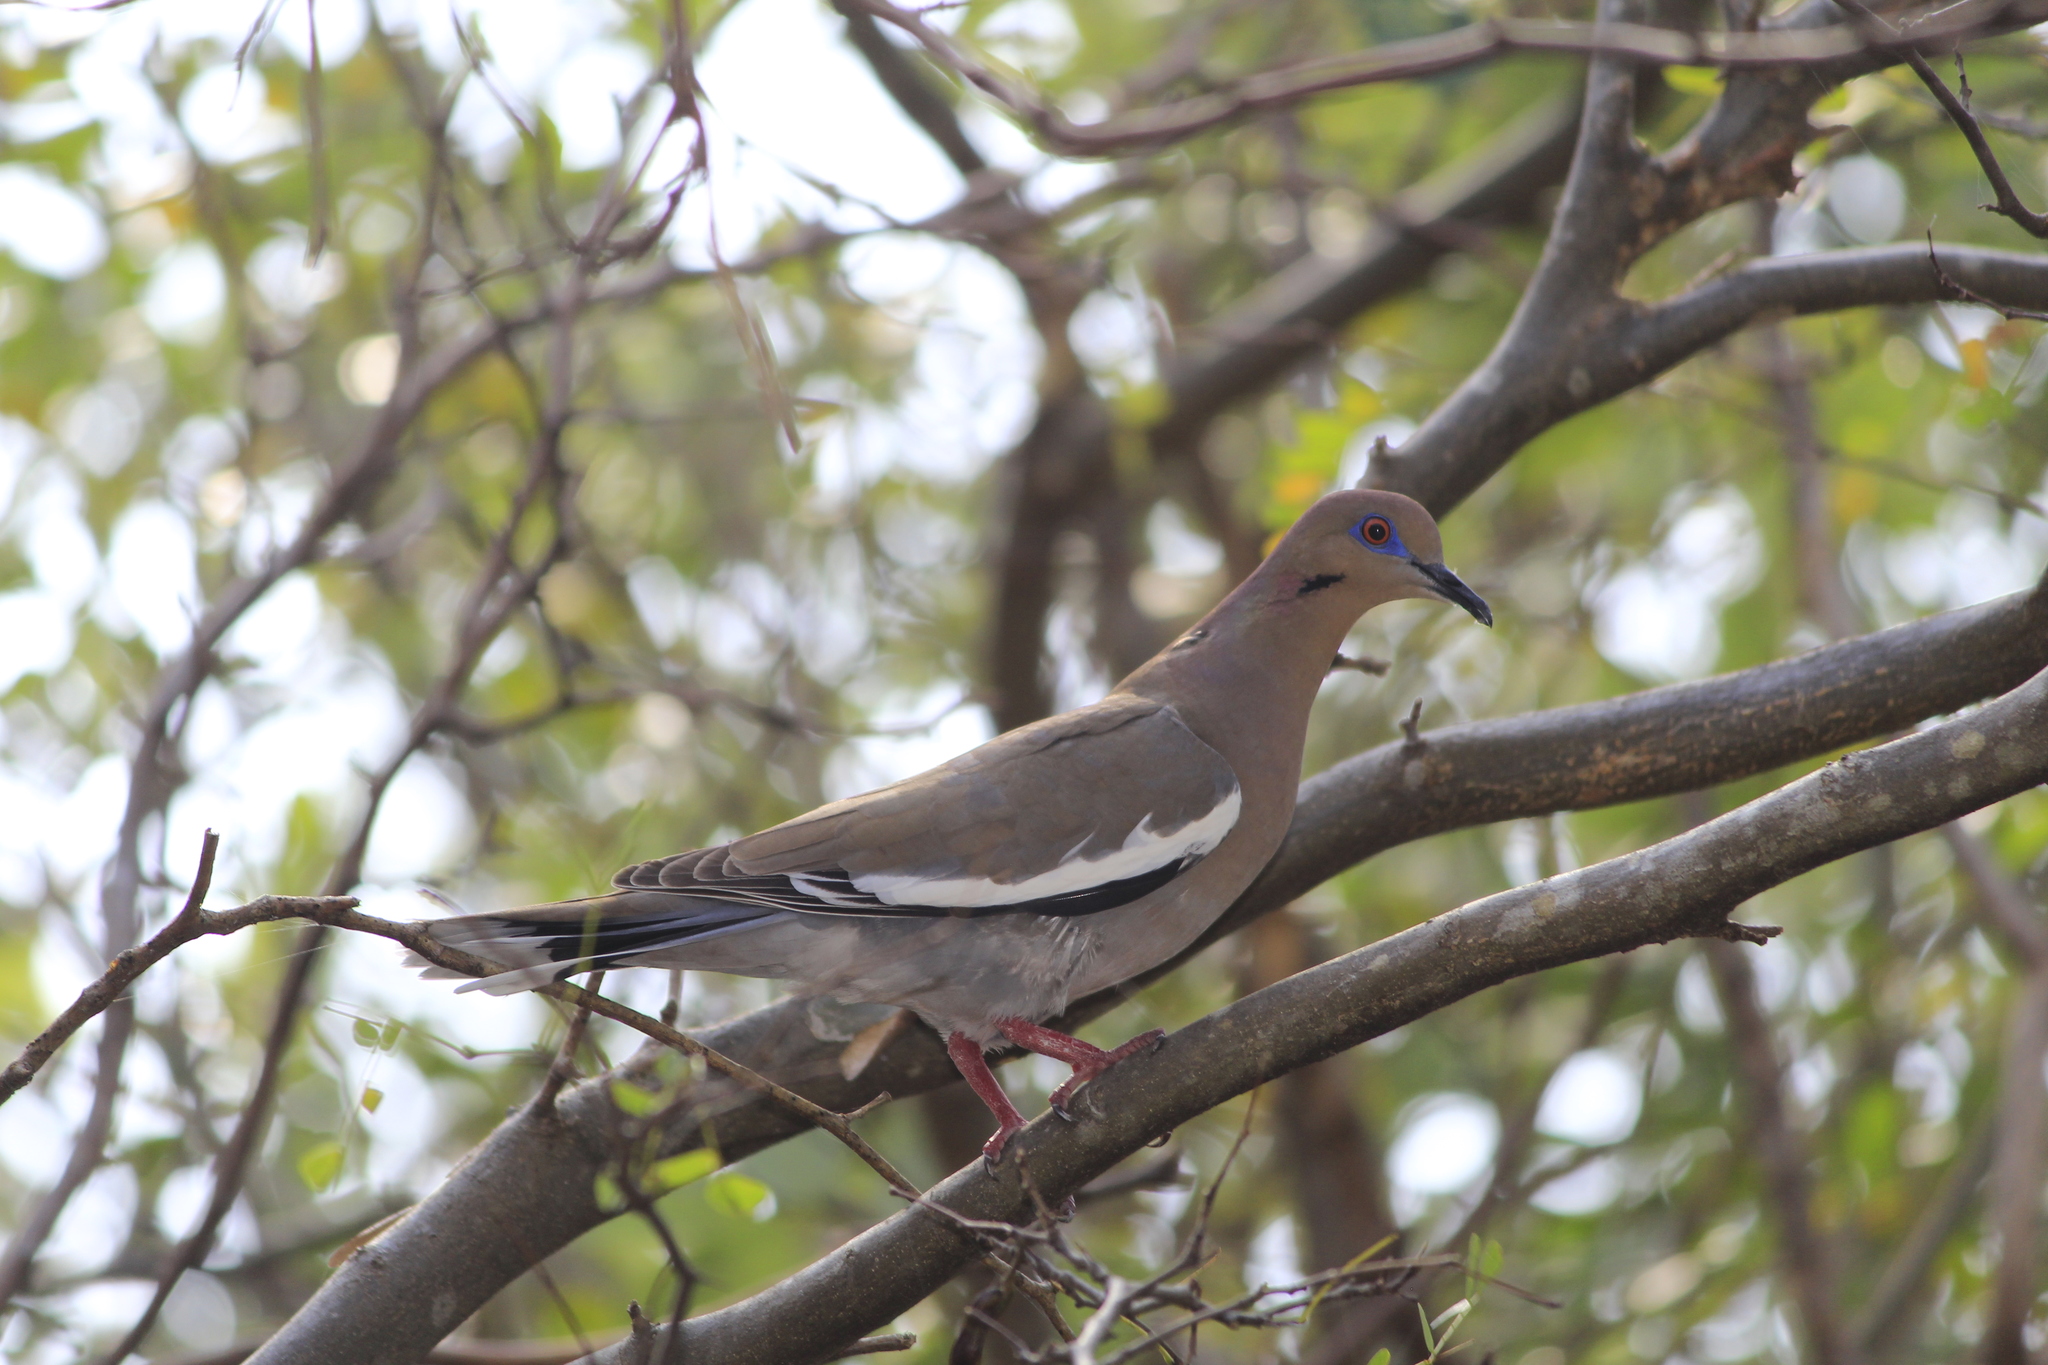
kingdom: Animalia
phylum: Chordata
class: Aves
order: Columbiformes
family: Columbidae
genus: Zenaida
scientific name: Zenaida asiatica
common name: White-winged dove
